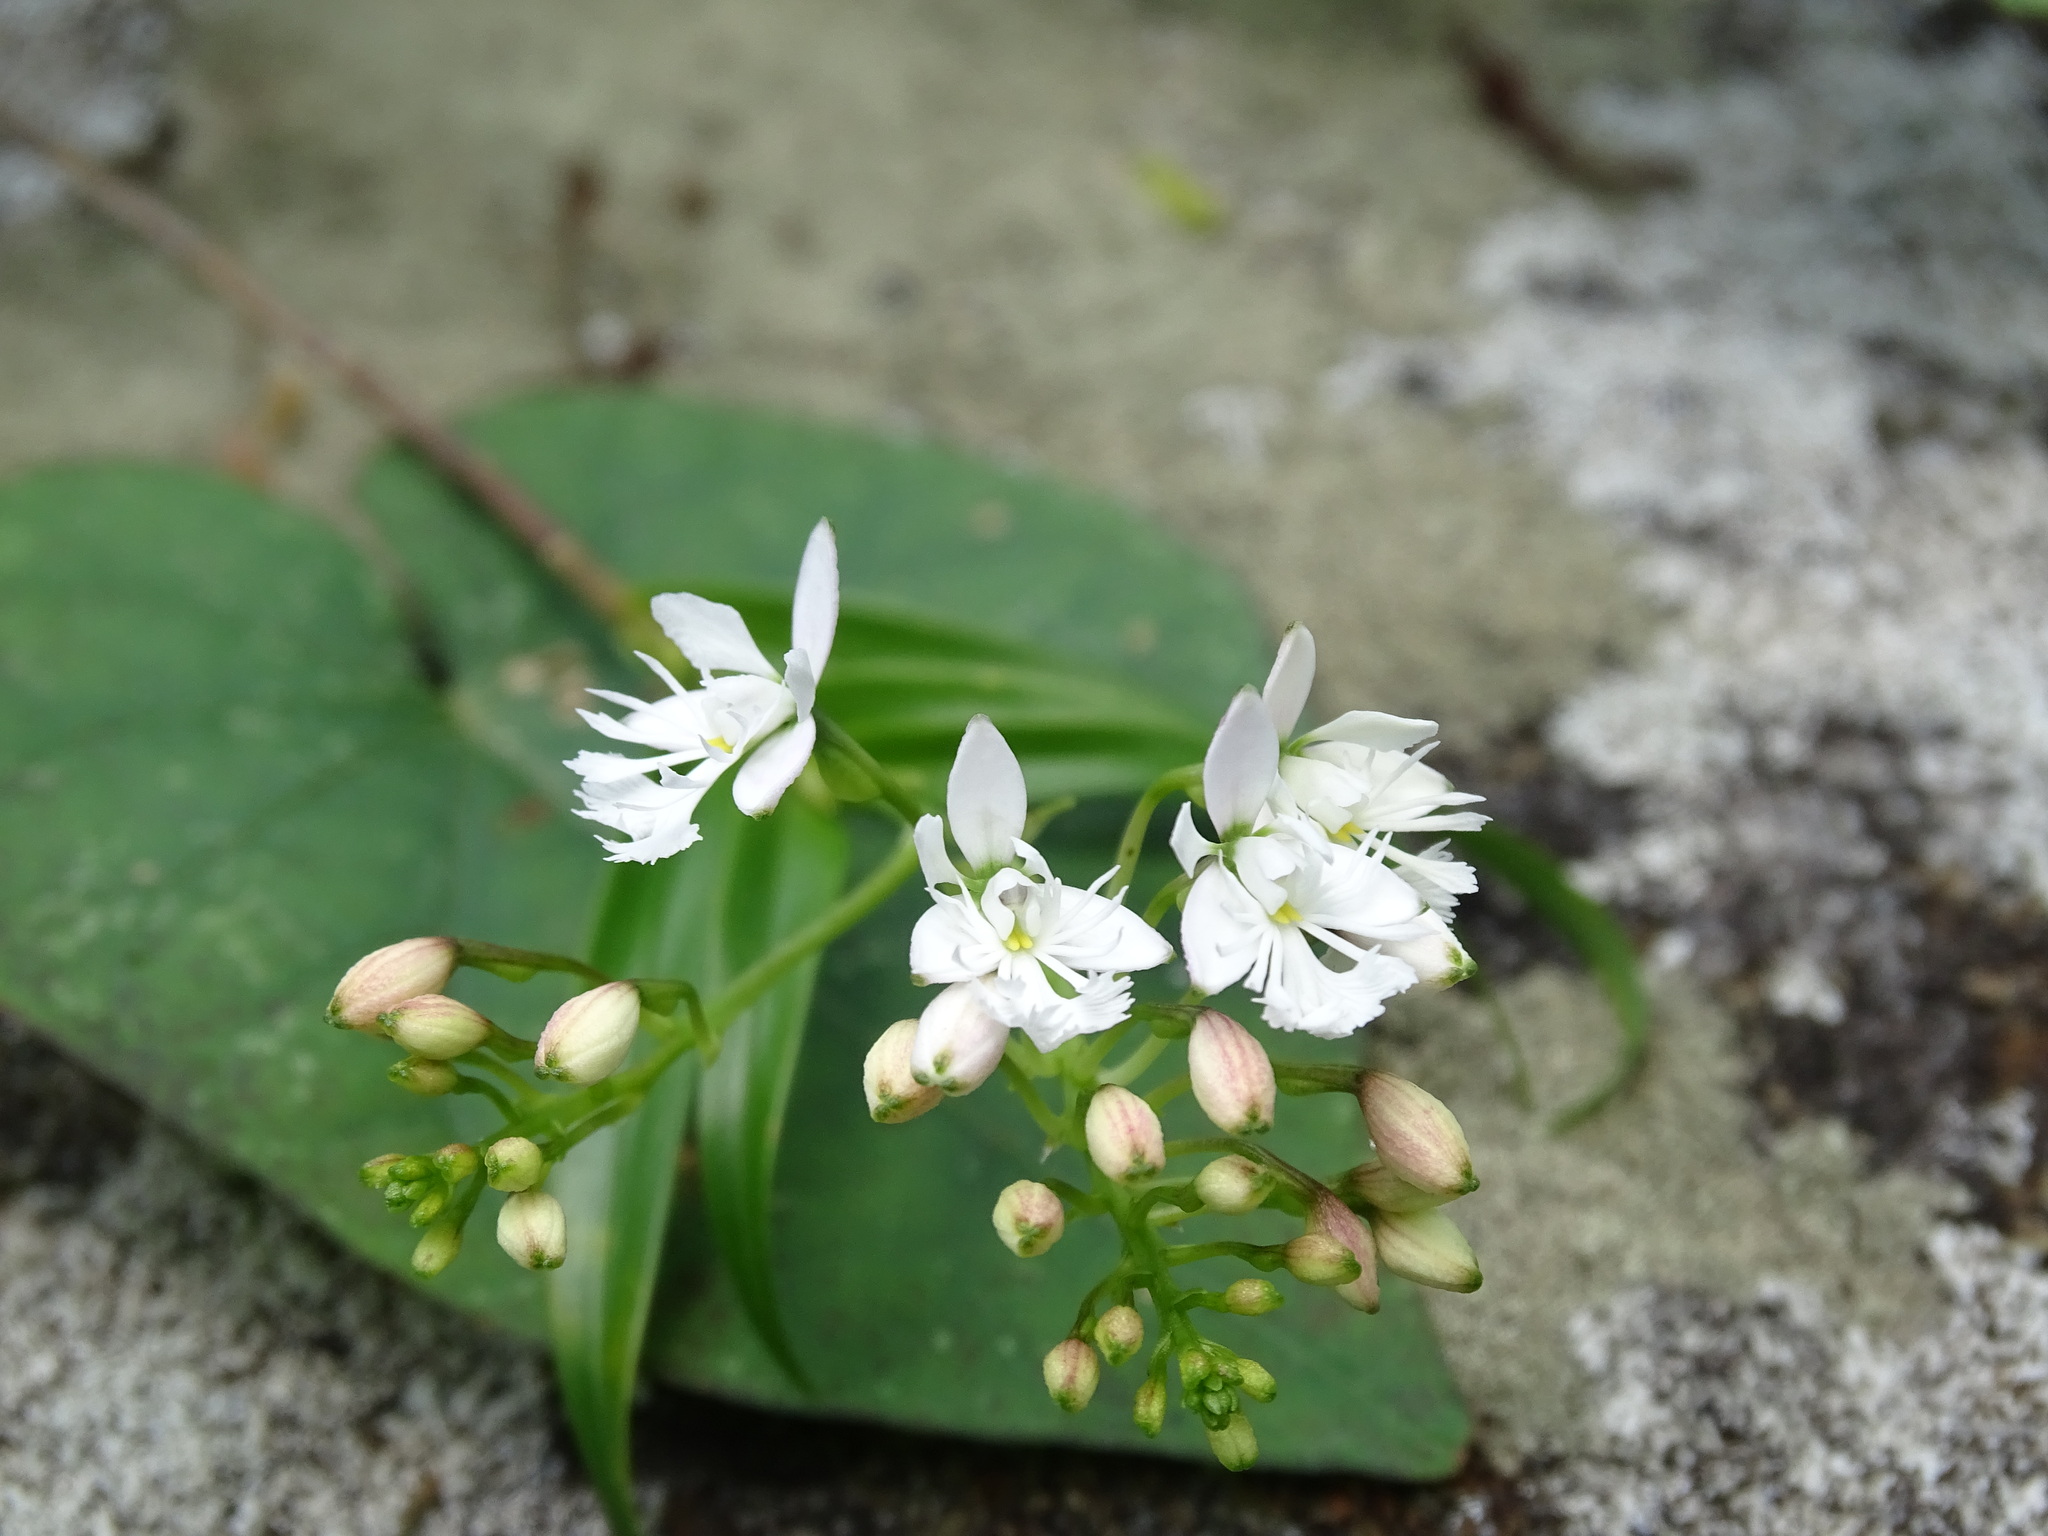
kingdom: Plantae
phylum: Tracheophyta
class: Liliopsida
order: Asparagales
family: Orchidaceae
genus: Epidendrum
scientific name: Epidendrum caligarium
